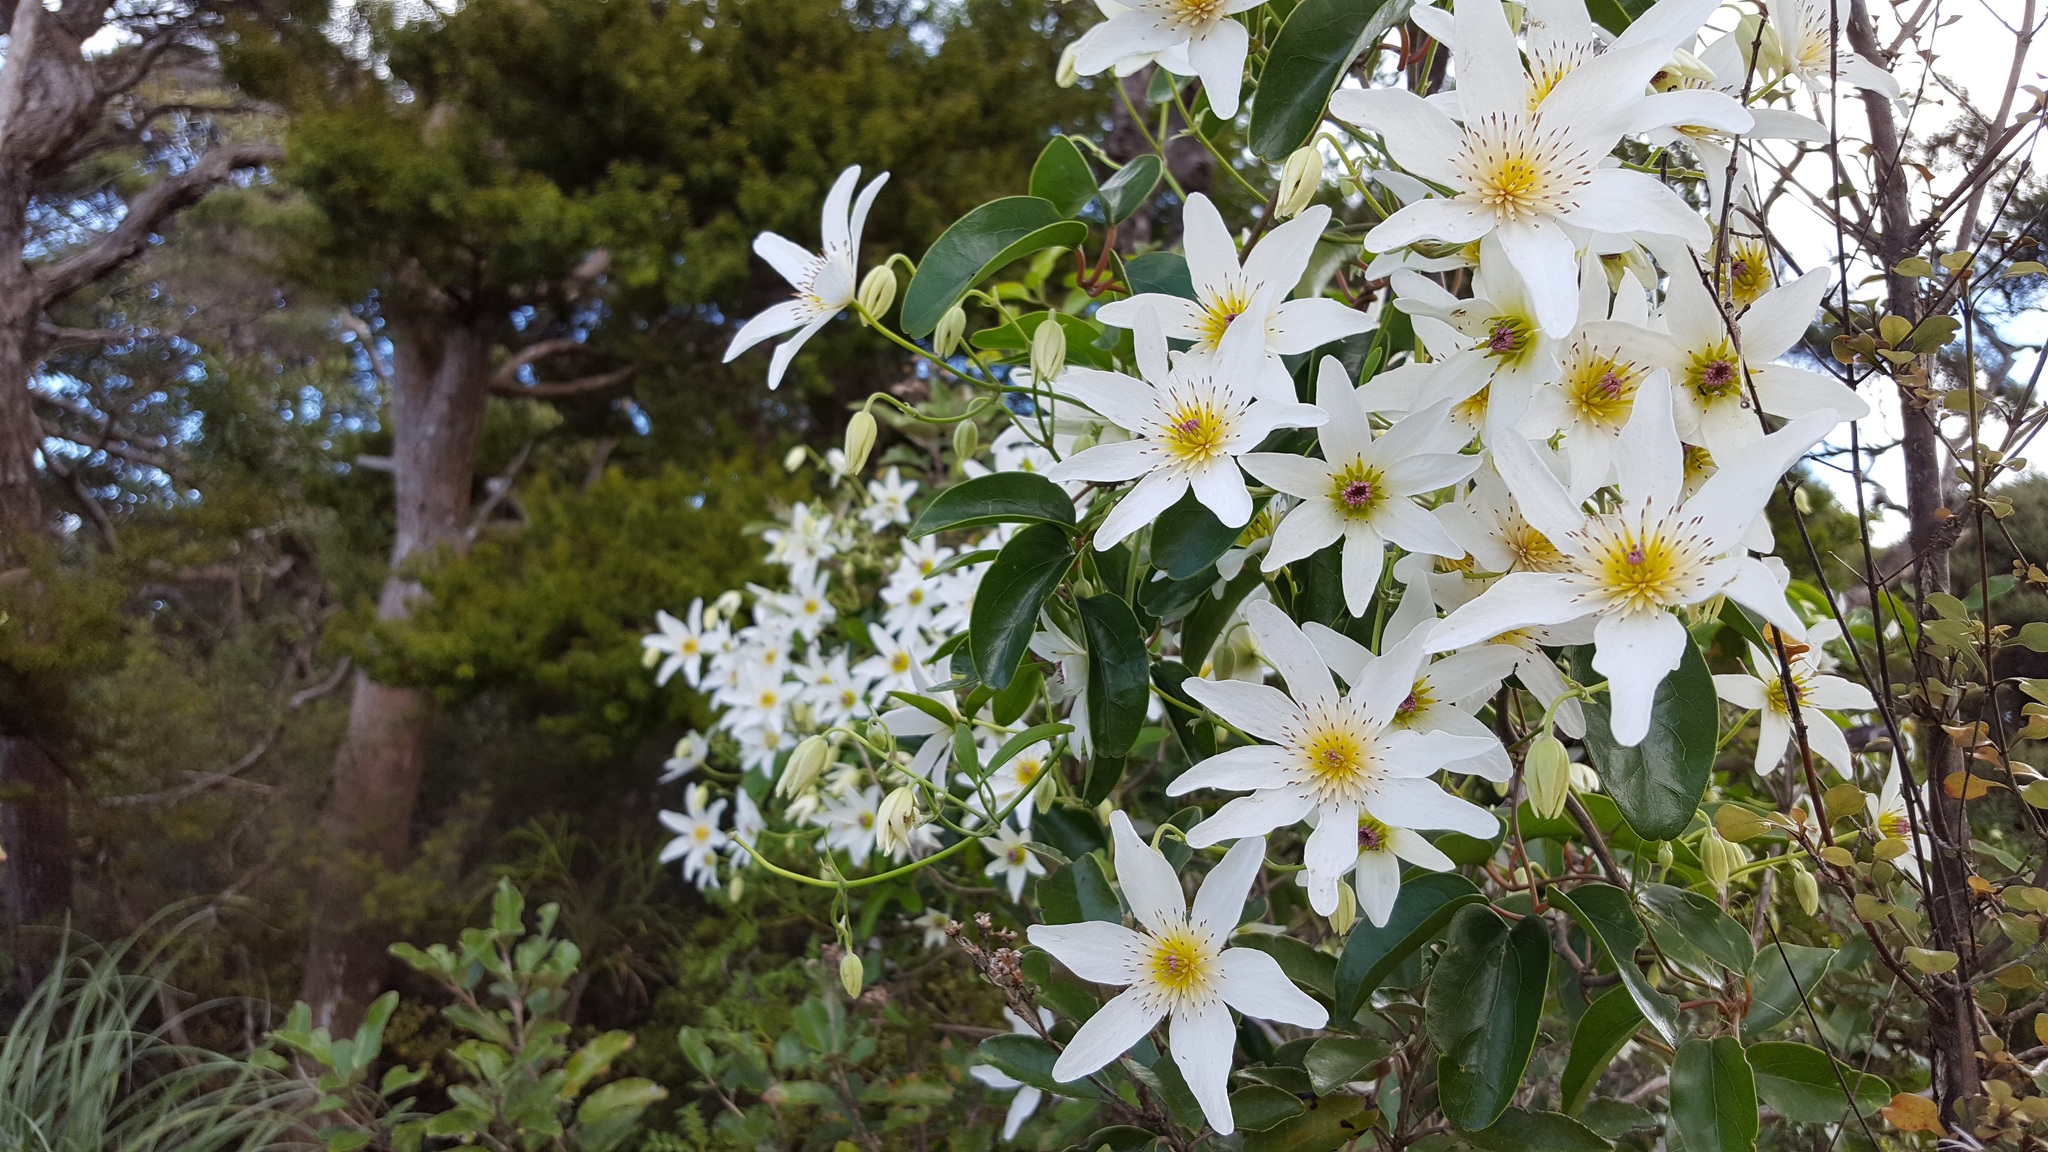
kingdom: Plantae
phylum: Tracheophyta
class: Magnoliopsida
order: Ranunculales
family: Ranunculaceae
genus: Clematis
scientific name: Clematis paniculata
